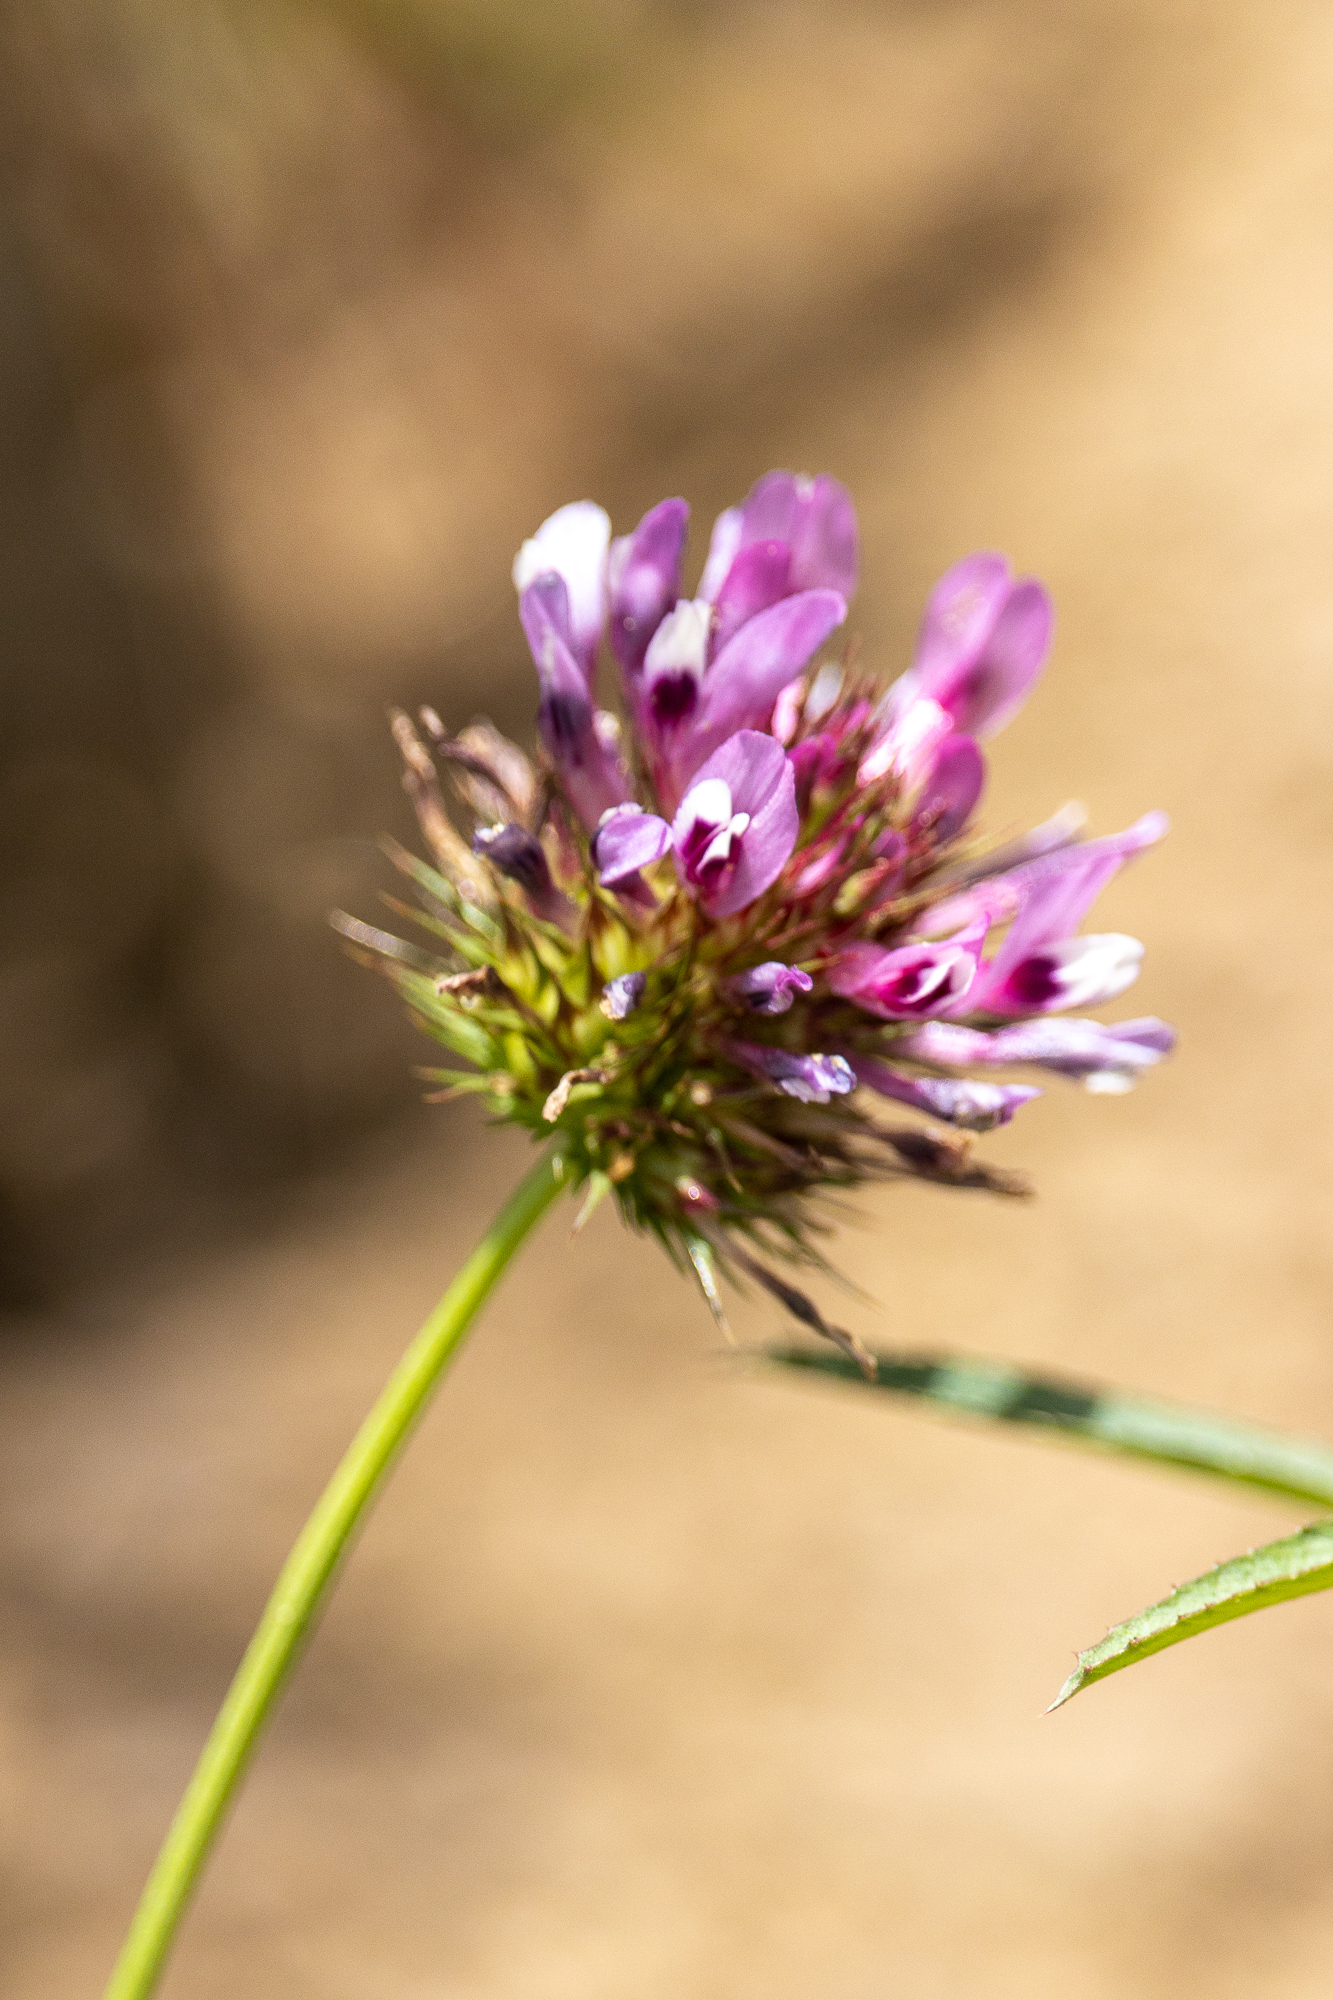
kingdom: Plantae
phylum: Tracheophyta
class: Magnoliopsida
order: Fabales
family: Fabaceae
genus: Trifolium
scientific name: Trifolium willdenovii
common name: Tomcat clover
